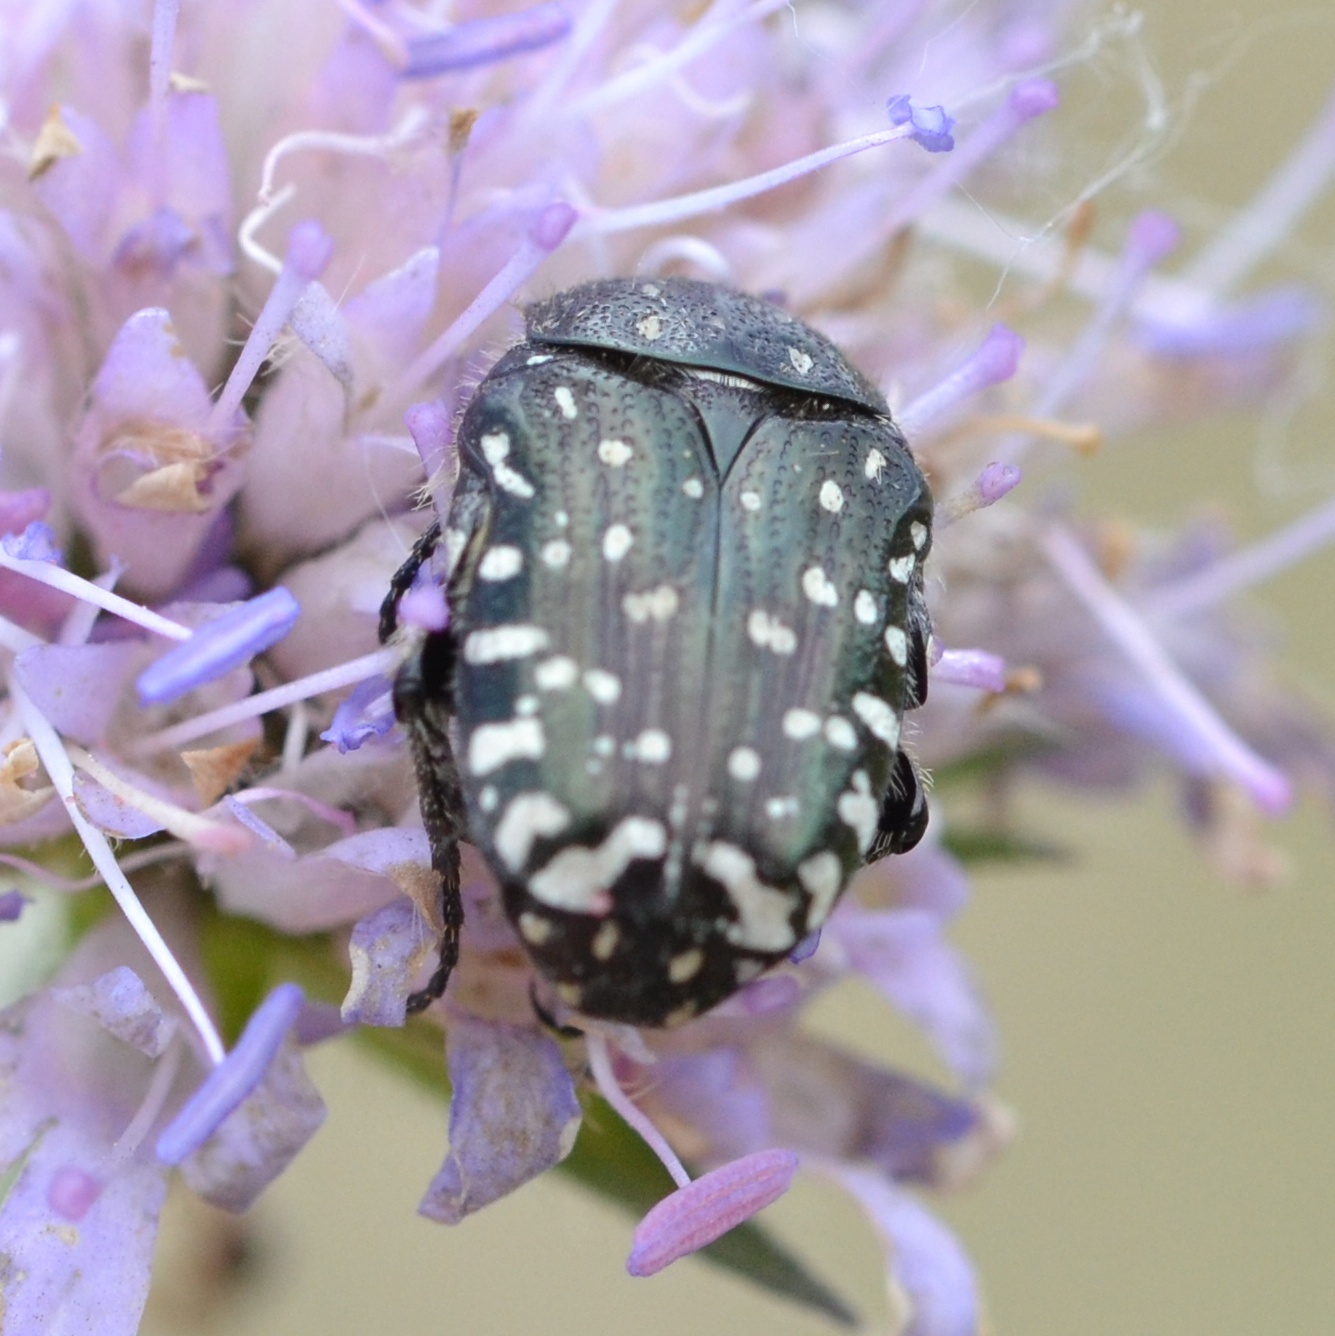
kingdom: Animalia
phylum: Arthropoda
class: Insecta
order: Coleoptera
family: Scarabaeidae
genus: Oxythyrea
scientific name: Oxythyrea funesta
